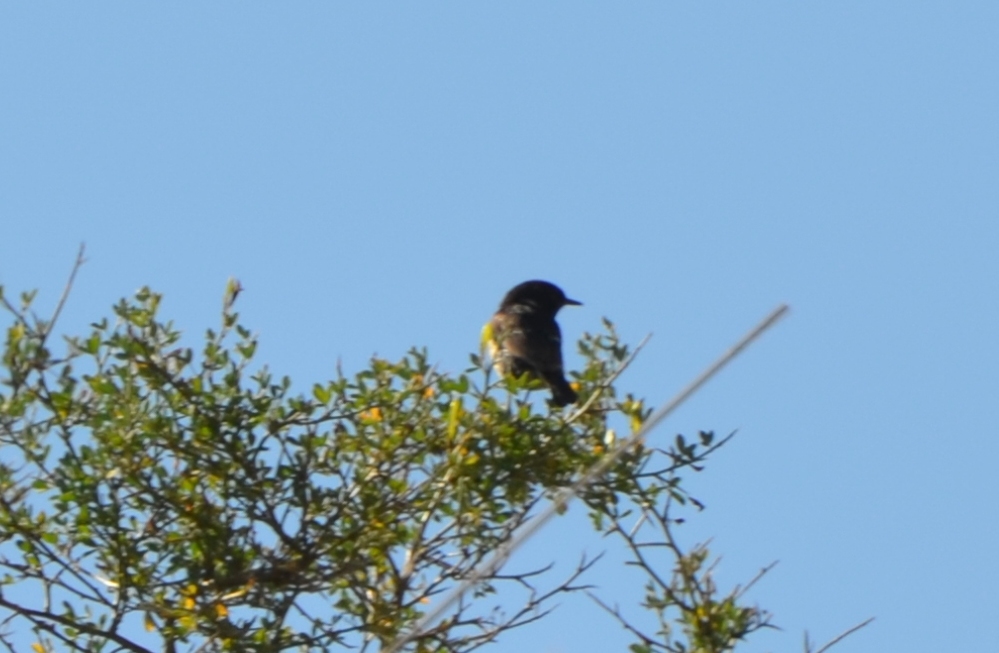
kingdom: Animalia
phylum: Chordata
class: Aves
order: Passeriformes
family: Muscicapidae
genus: Saxicola
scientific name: Saxicola rubicola
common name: European stonechat
